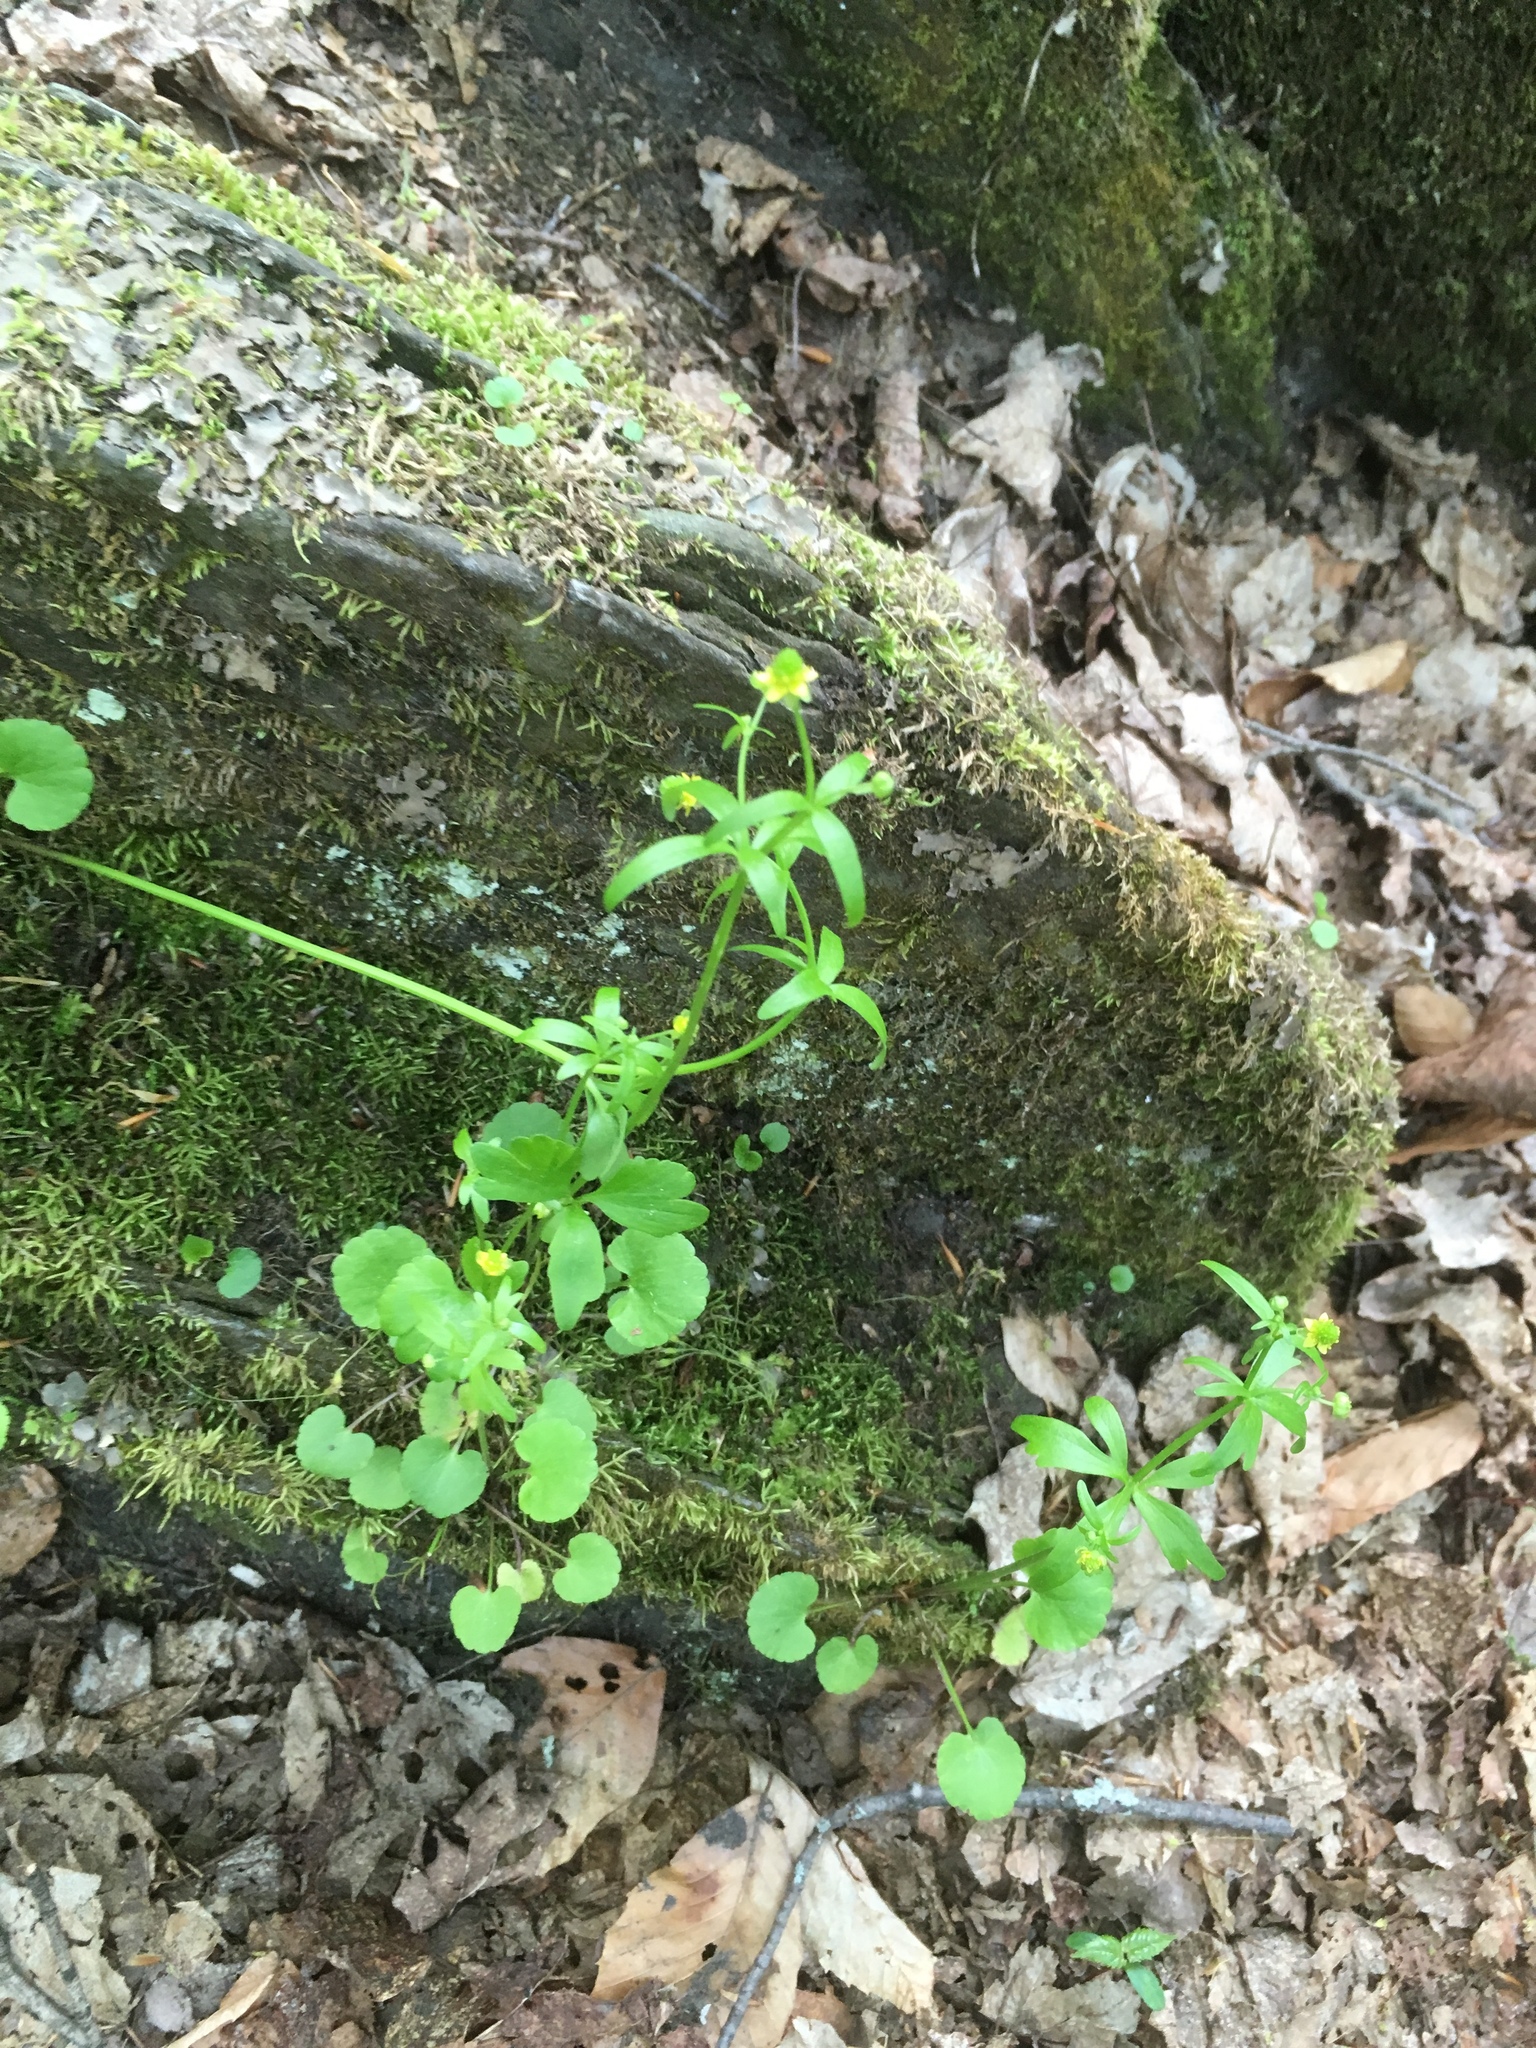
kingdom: Plantae
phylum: Tracheophyta
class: Magnoliopsida
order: Ranunculales
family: Ranunculaceae
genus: Ranunculus
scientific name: Ranunculus abortivus
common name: Early wood buttercup
